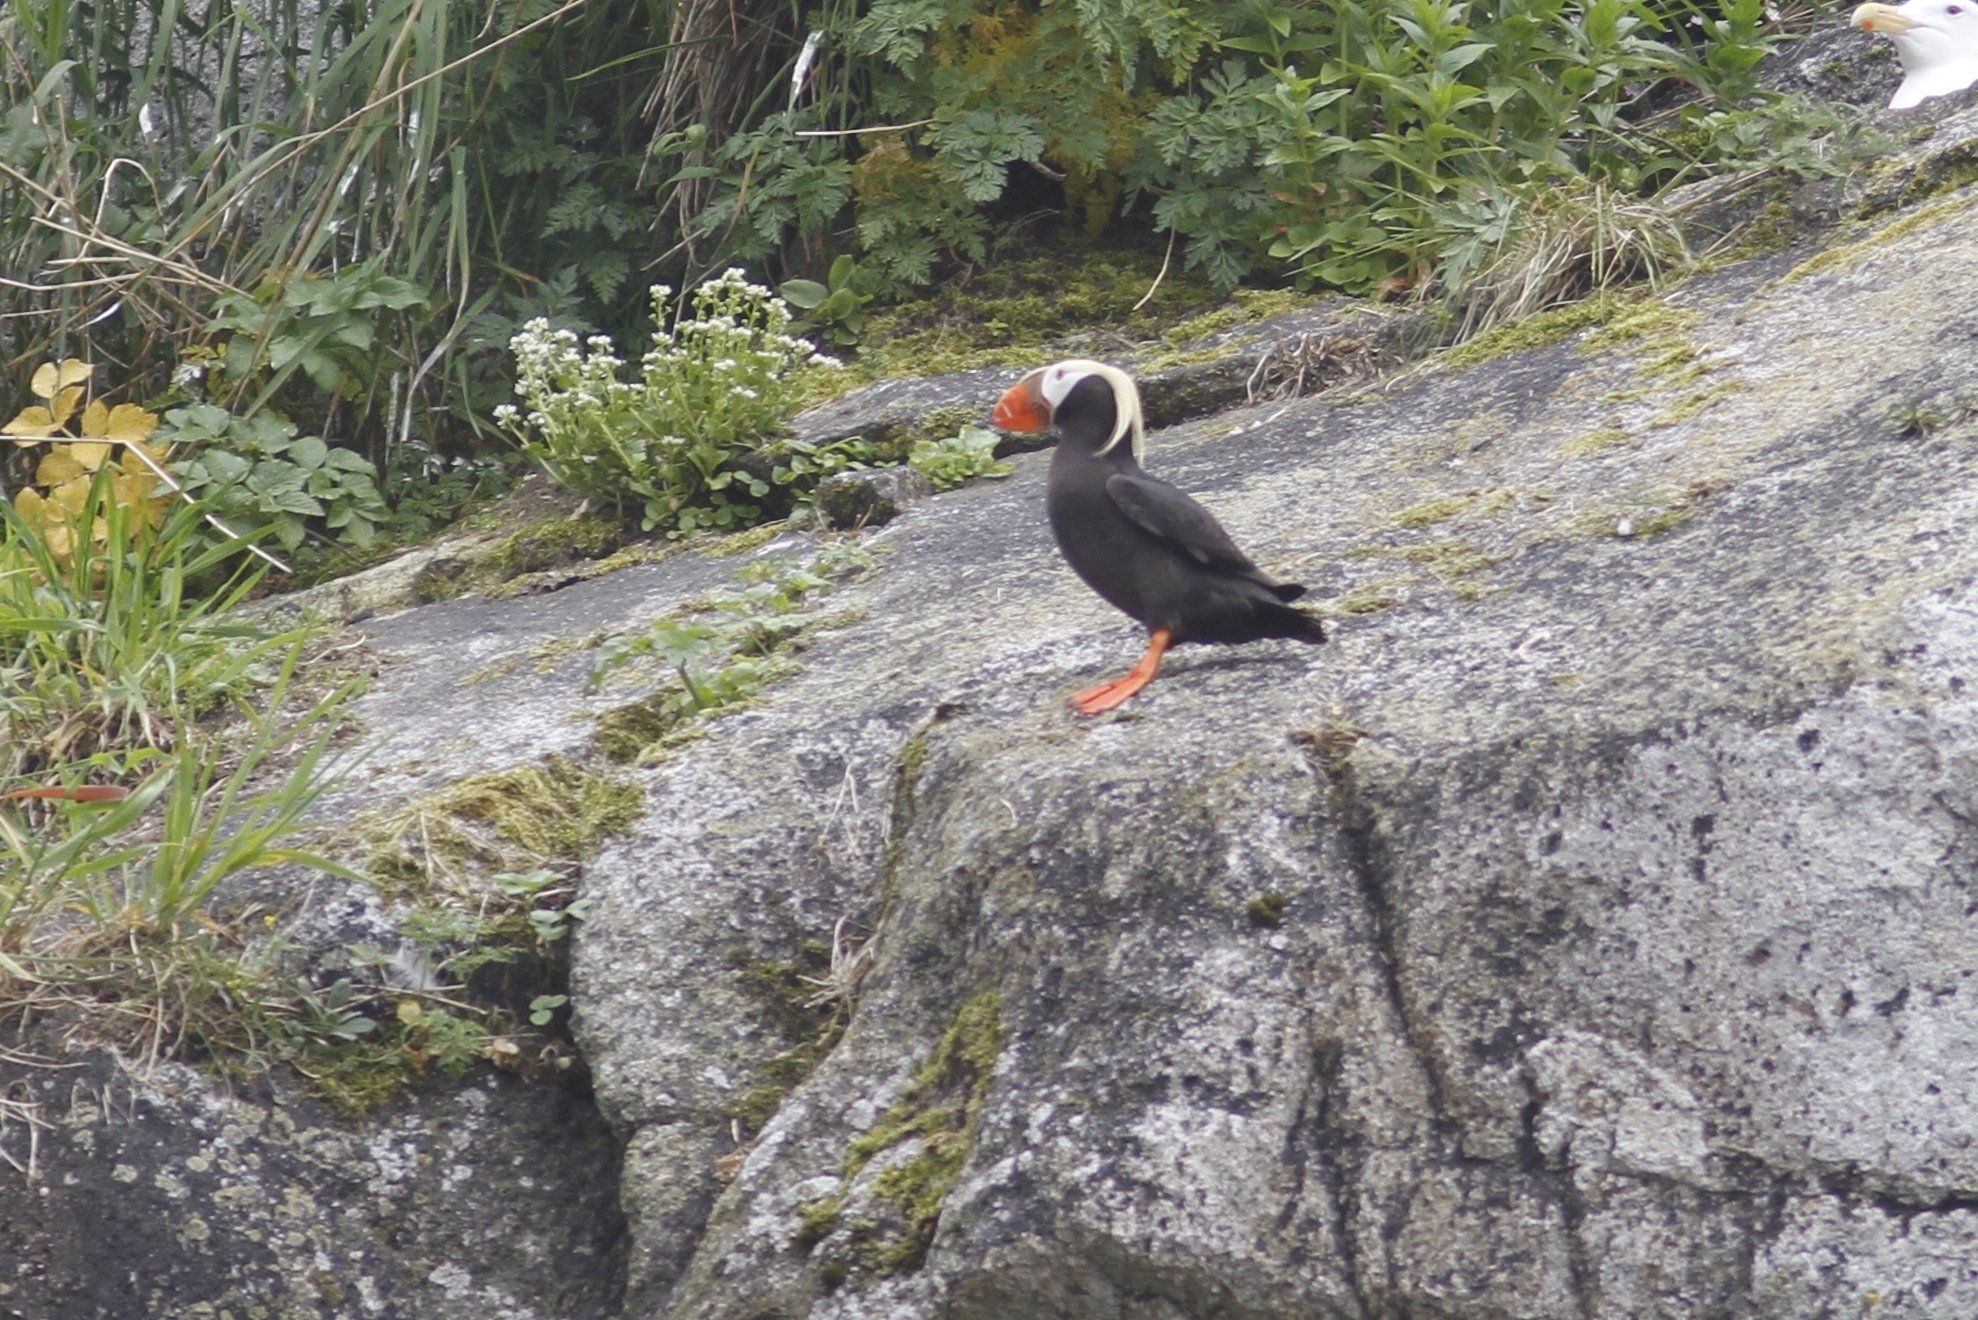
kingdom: Animalia
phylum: Chordata
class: Aves
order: Charadriiformes
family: Alcidae
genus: Fratercula
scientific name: Fratercula cirrhata
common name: Tufted puffin
